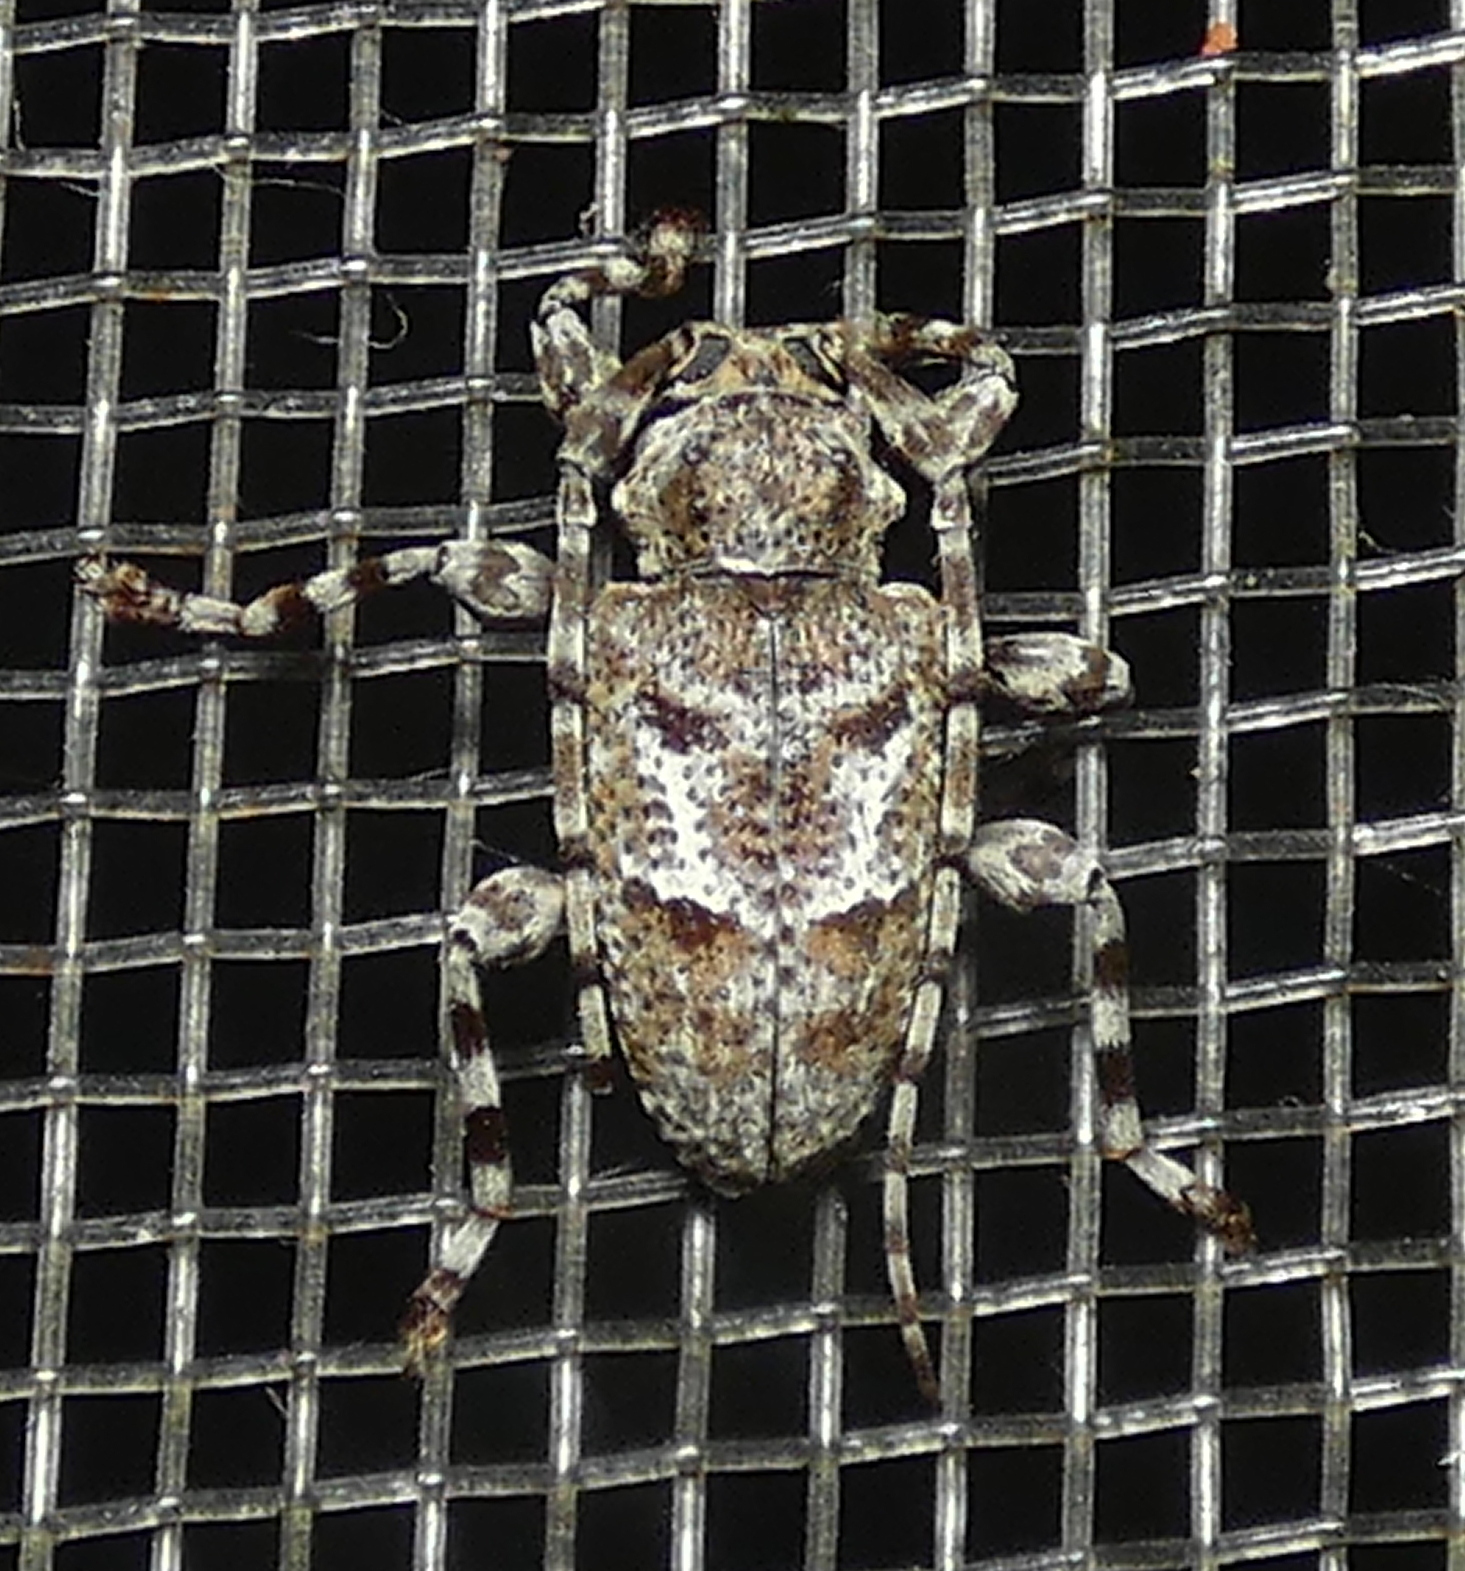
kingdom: Animalia
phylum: Arthropoda
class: Insecta
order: Coleoptera
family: Cerambycidae
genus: Plistonax
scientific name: Plistonax albituberculatus
